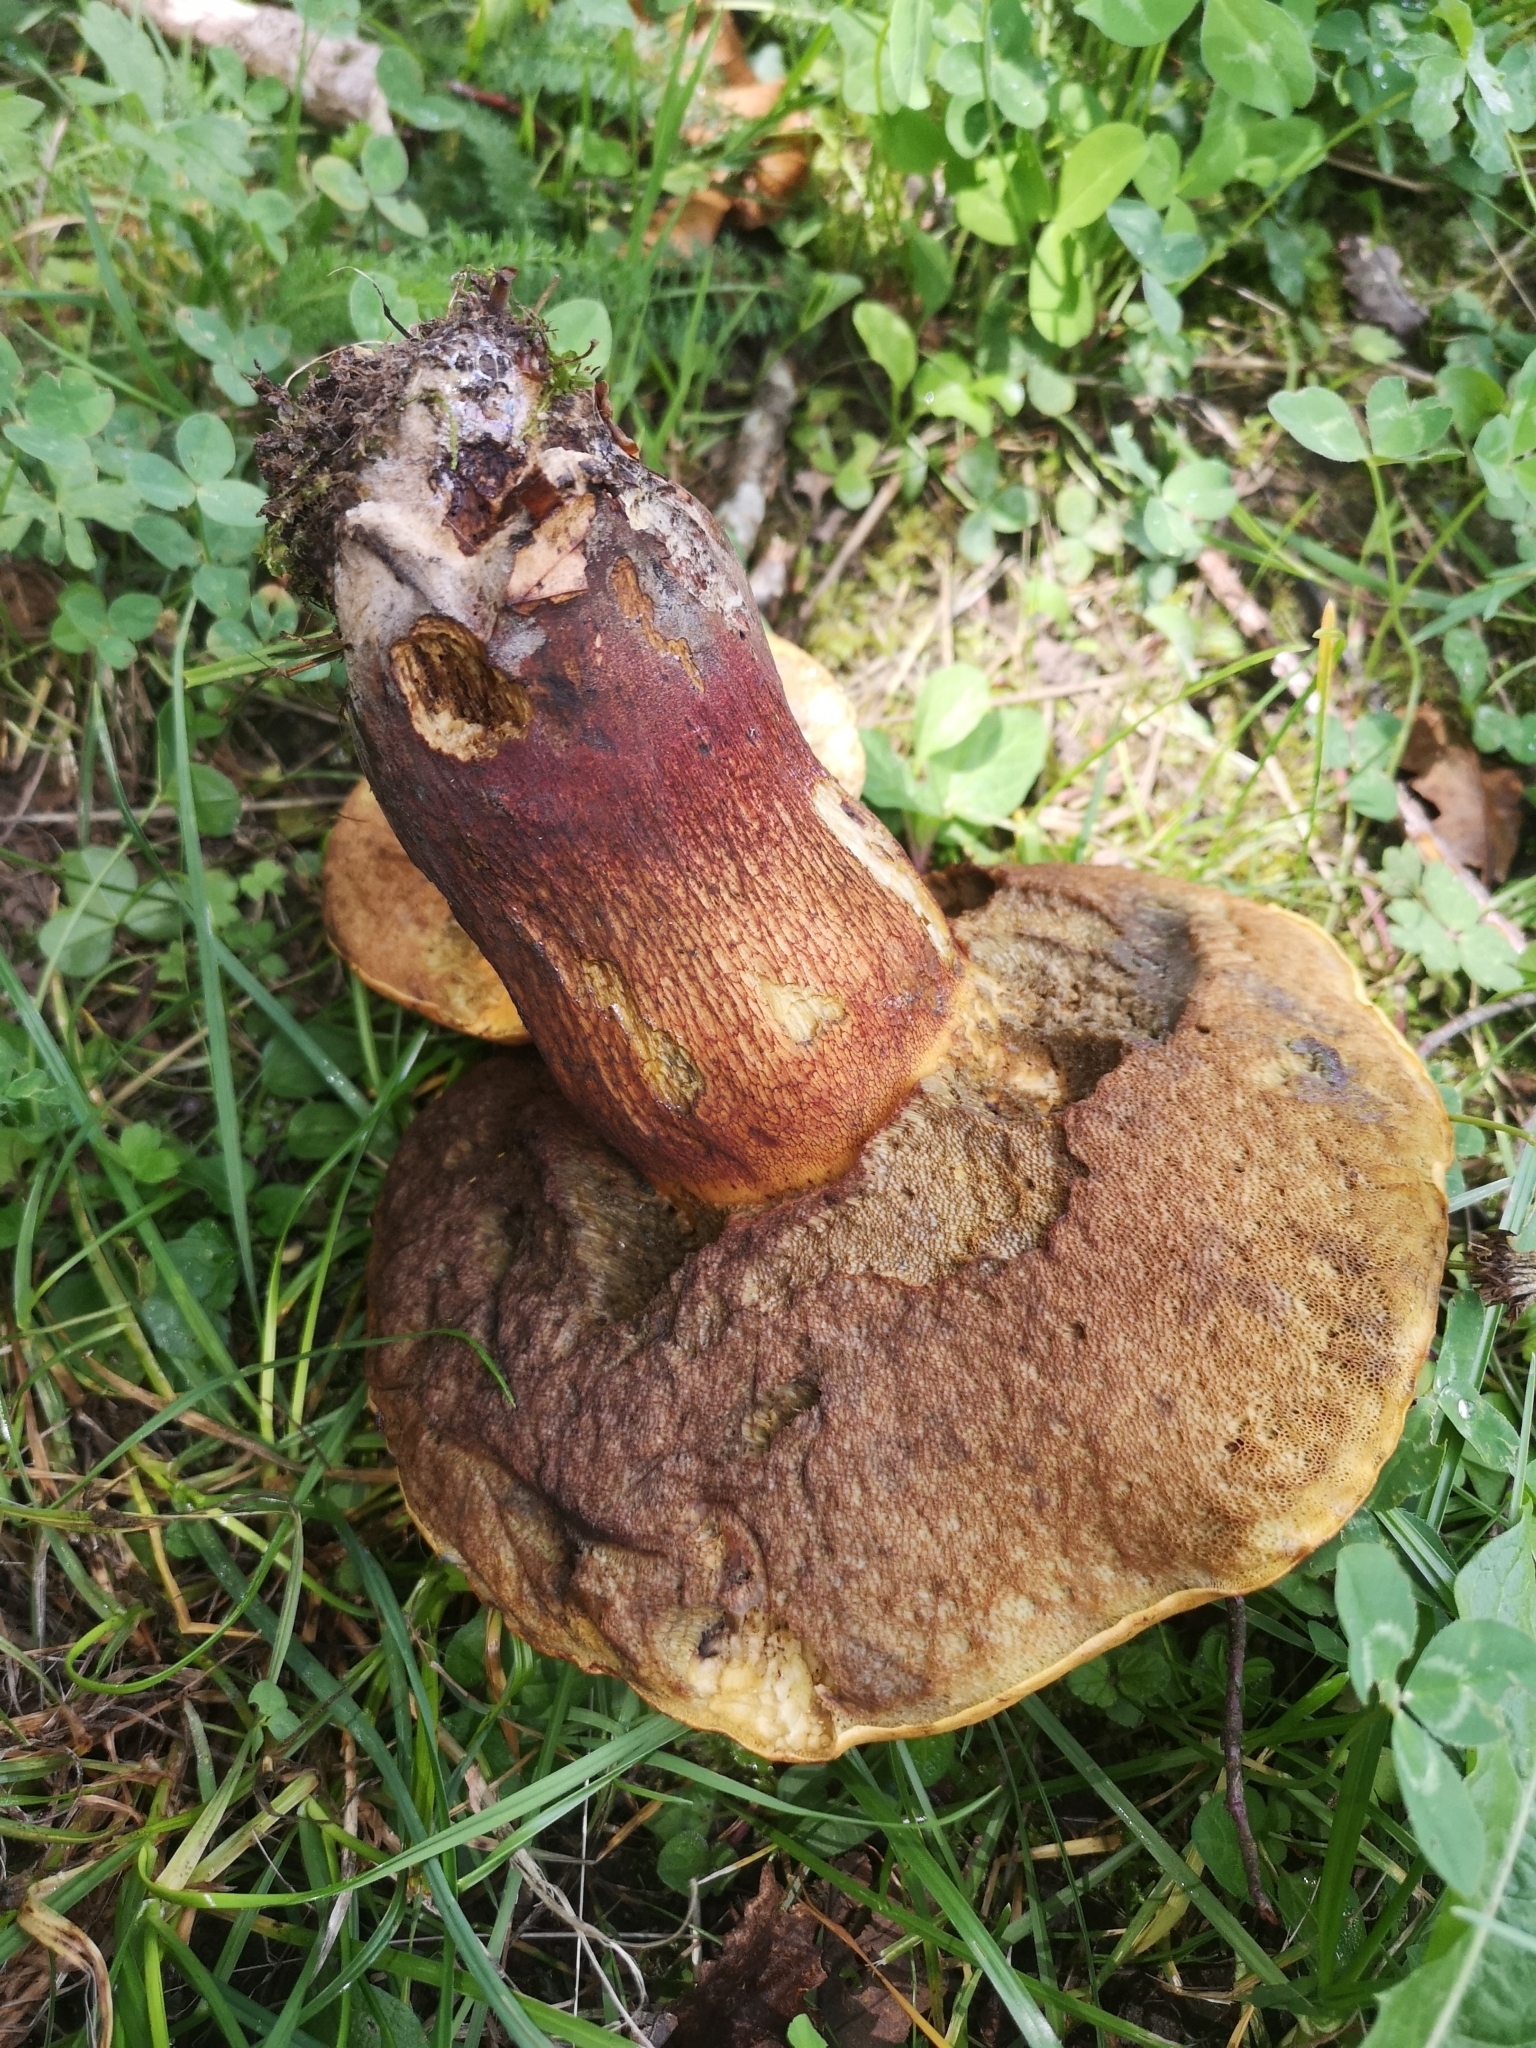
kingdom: Fungi
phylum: Basidiomycota
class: Agaricomycetes
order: Boletales
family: Boletaceae
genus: Suillellus
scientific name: Suillellus luridus
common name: Lurid bolete
